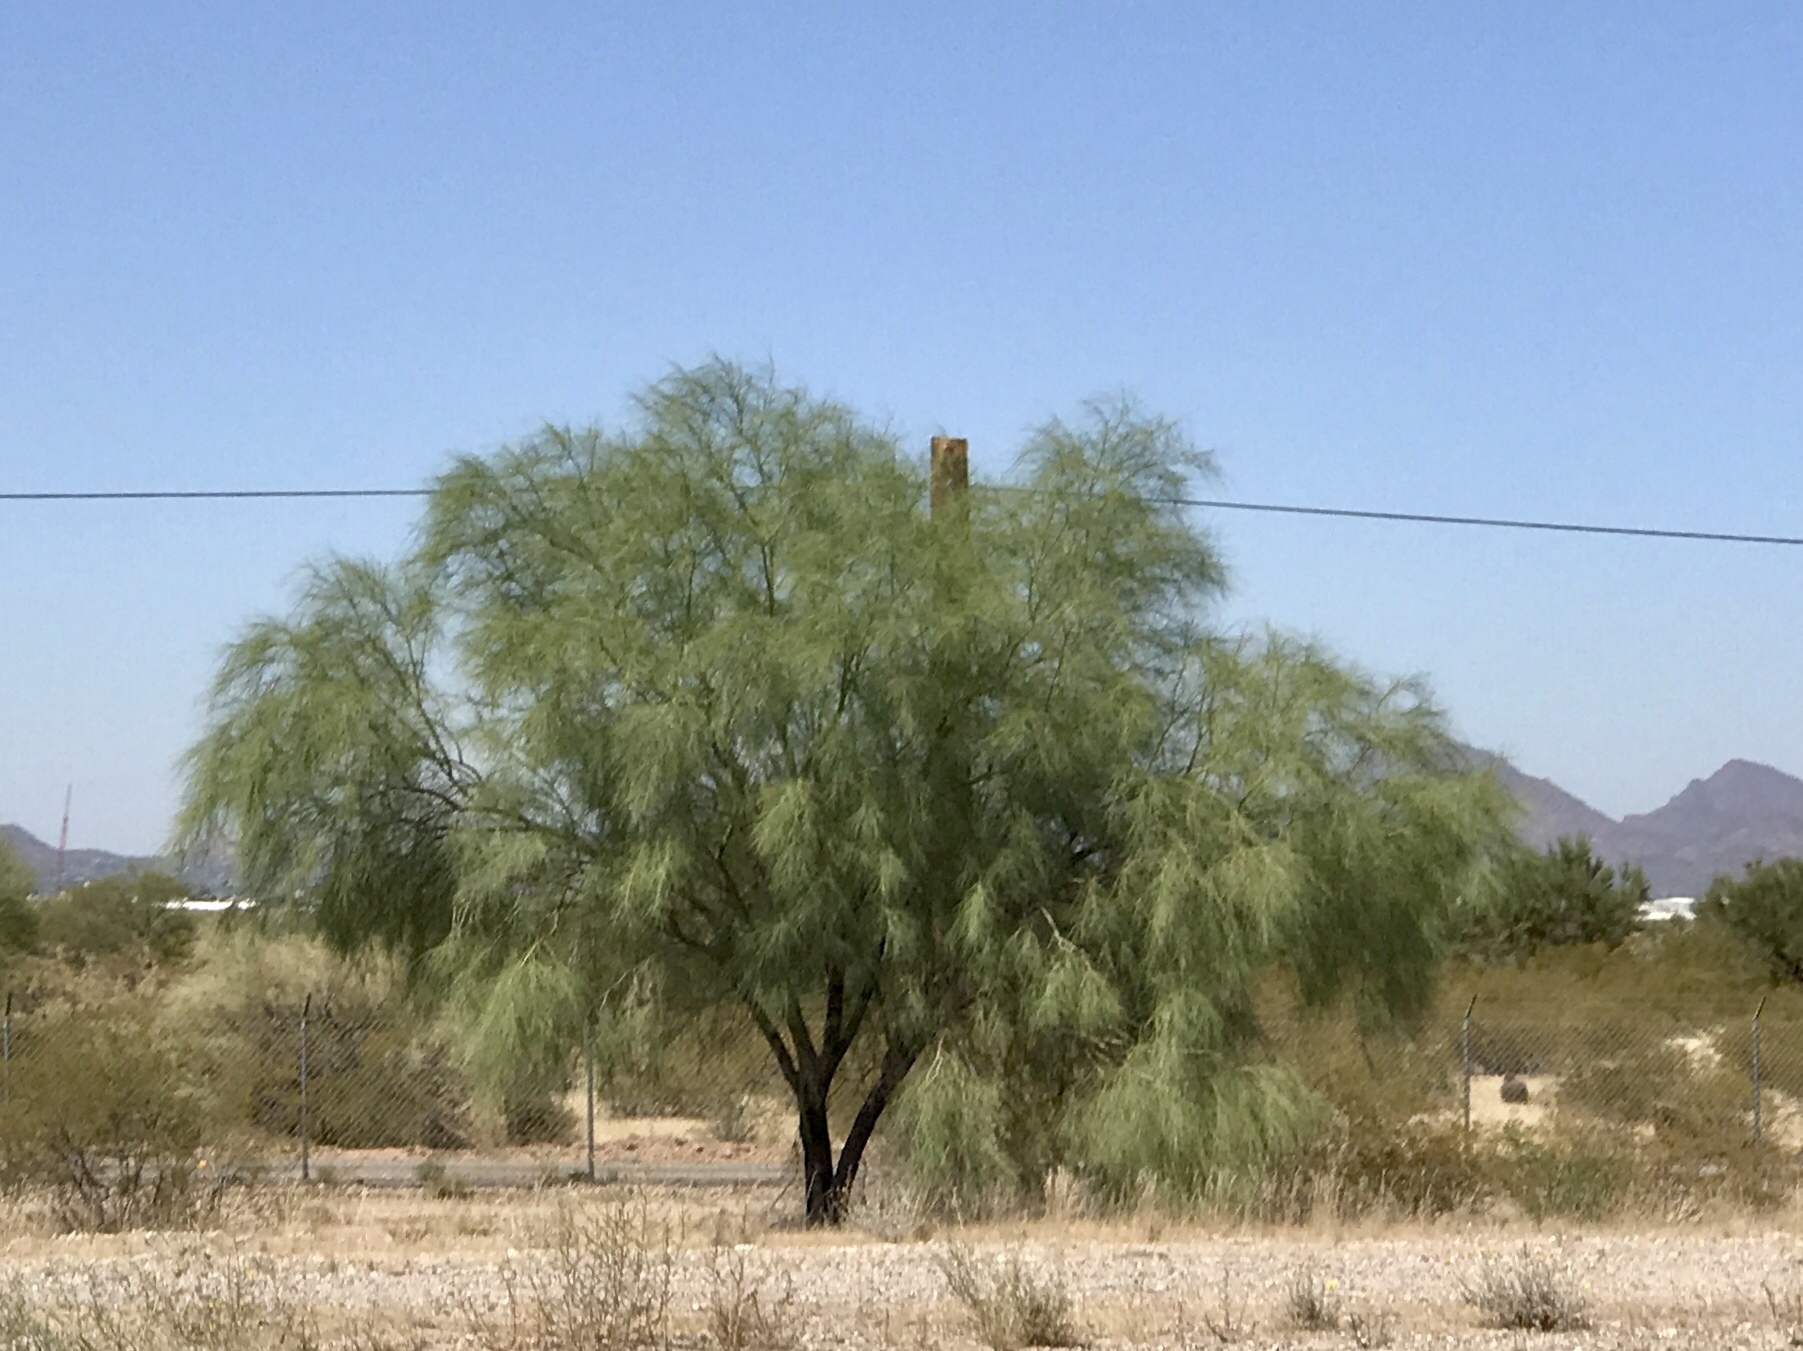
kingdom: Plantae
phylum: Tracheophyta
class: Magnoliopsida
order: Fabales
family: Fabaceae
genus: Parkinsonia
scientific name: Parkinsonia aculeata
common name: Jerusalem thorn
